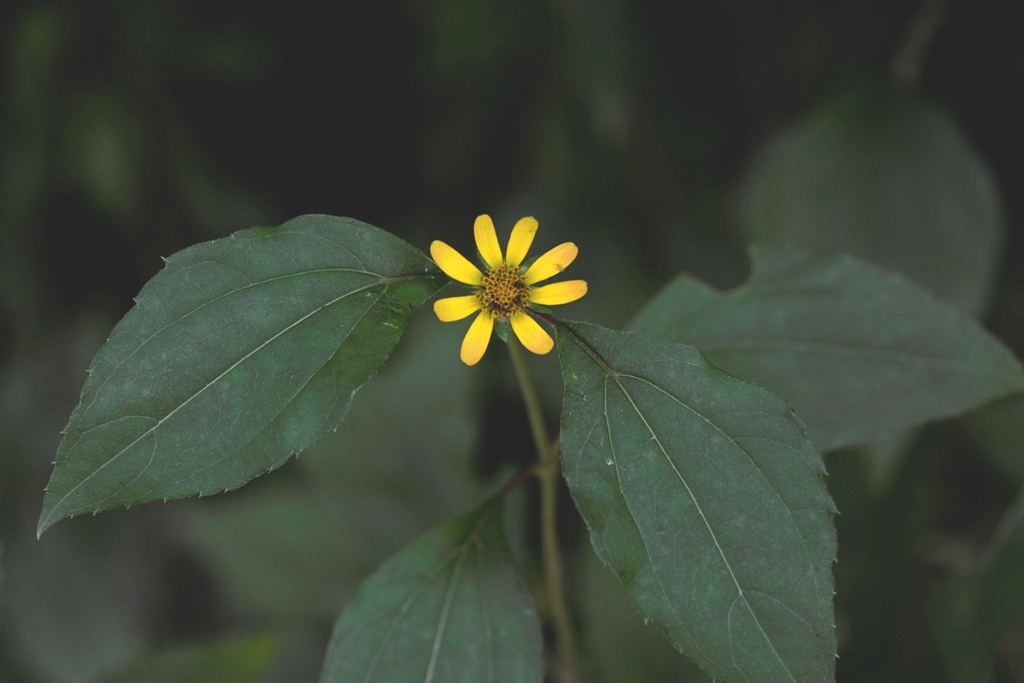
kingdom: Plantae
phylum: Tracheophyta
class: Magnoliopsida
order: Asterales
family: Asteraceae
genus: Philactis
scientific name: Philactis zinnioides
